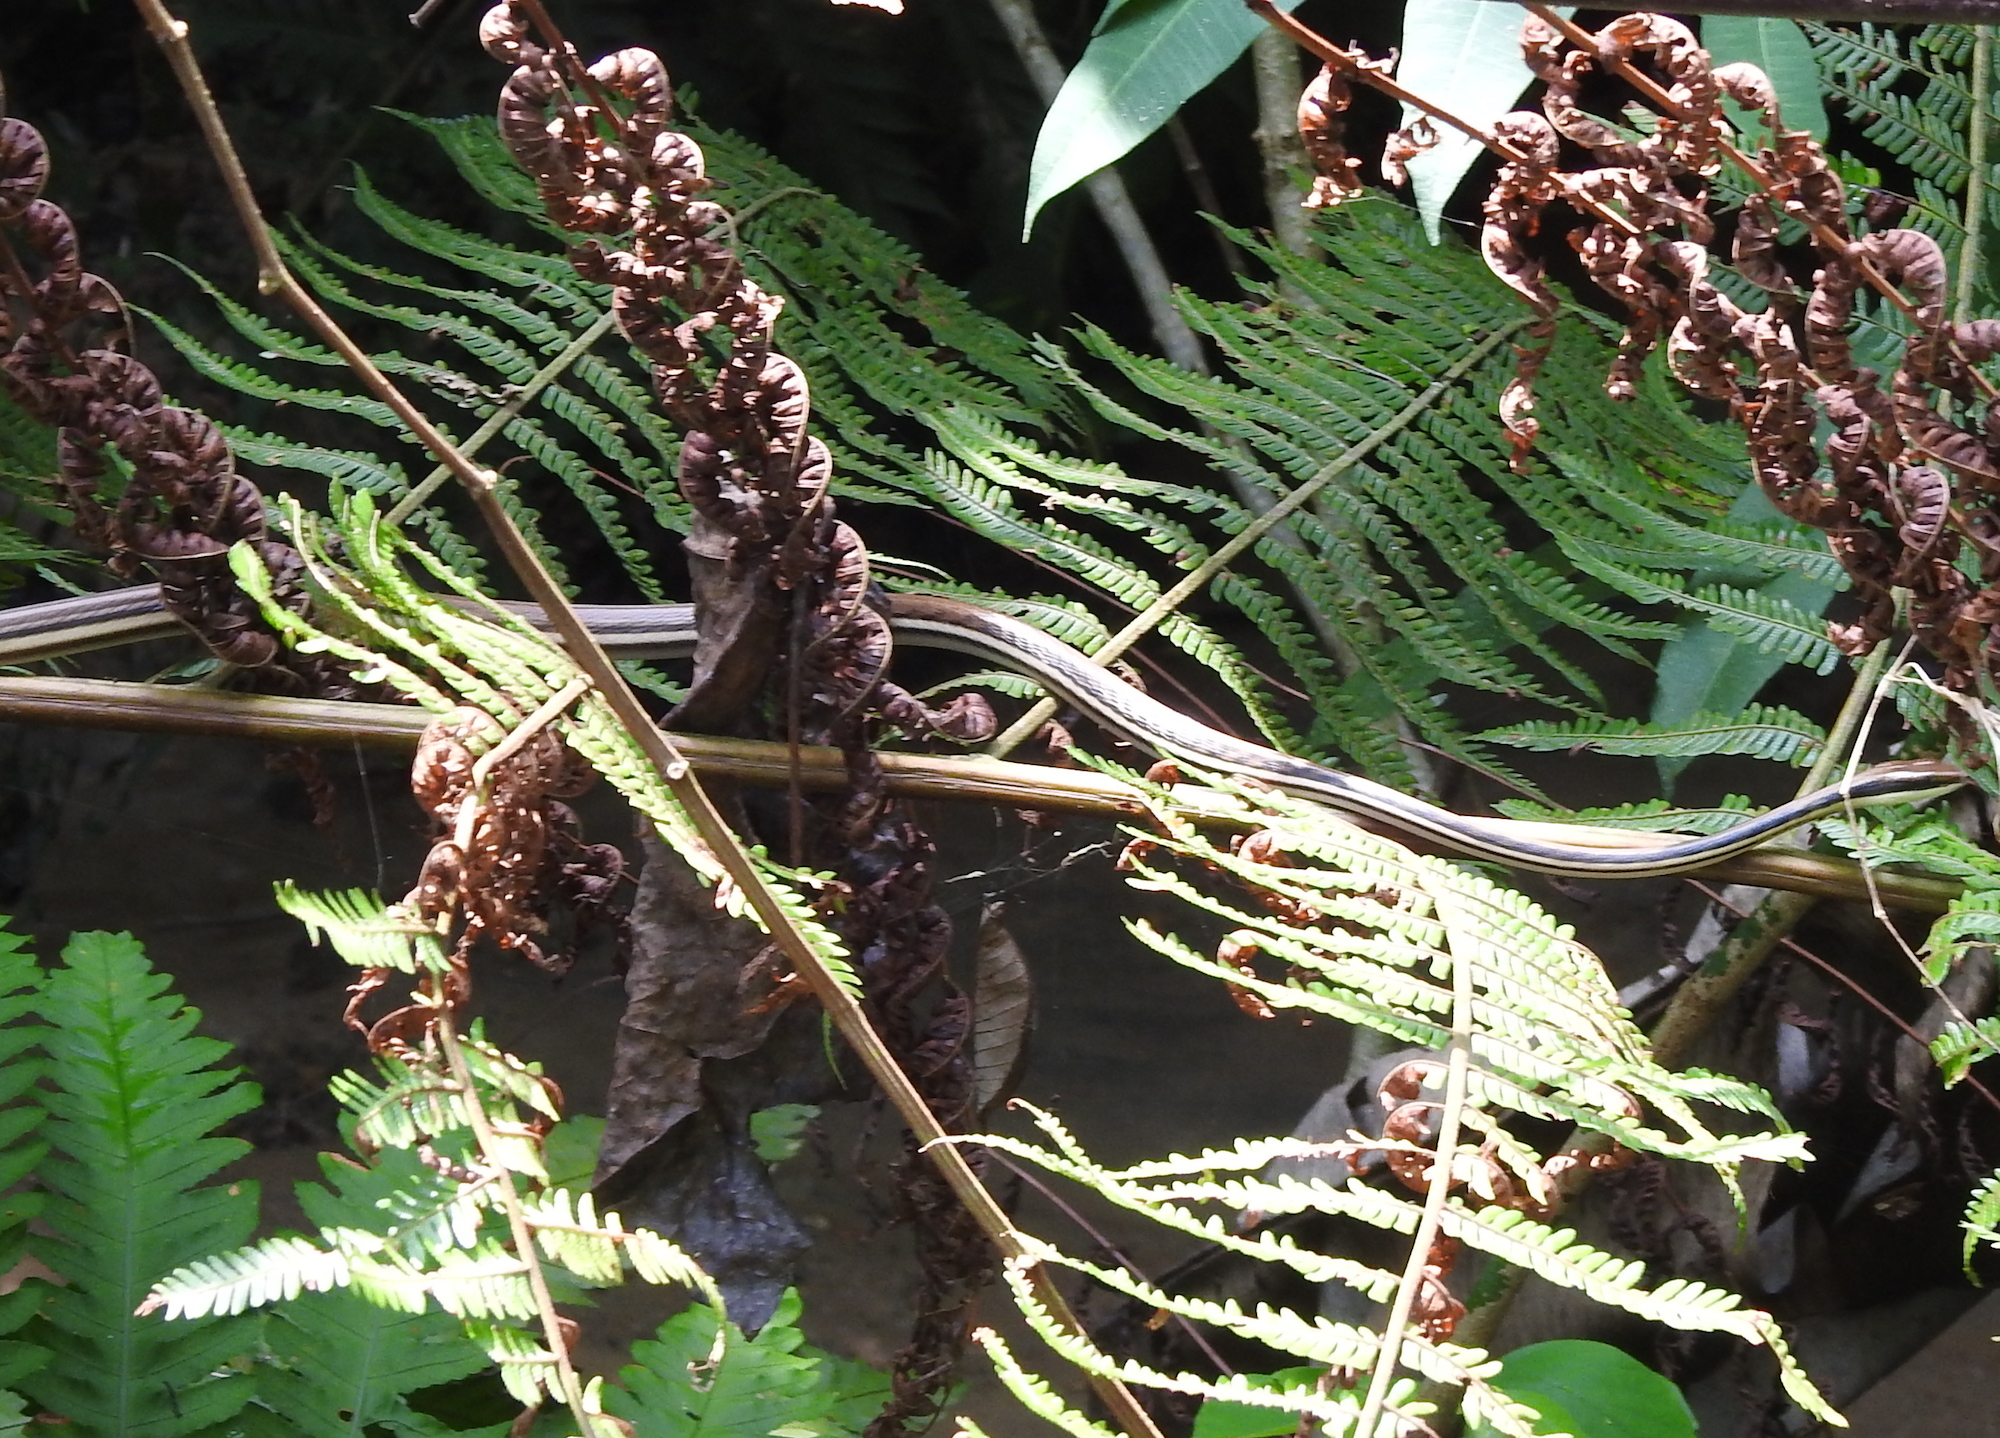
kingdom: Animalia
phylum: Chordata
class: Squamata
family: Colubridae
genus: Dendrelaphis
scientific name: Dendrelaphis pictus
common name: Indonesian bronze-back
